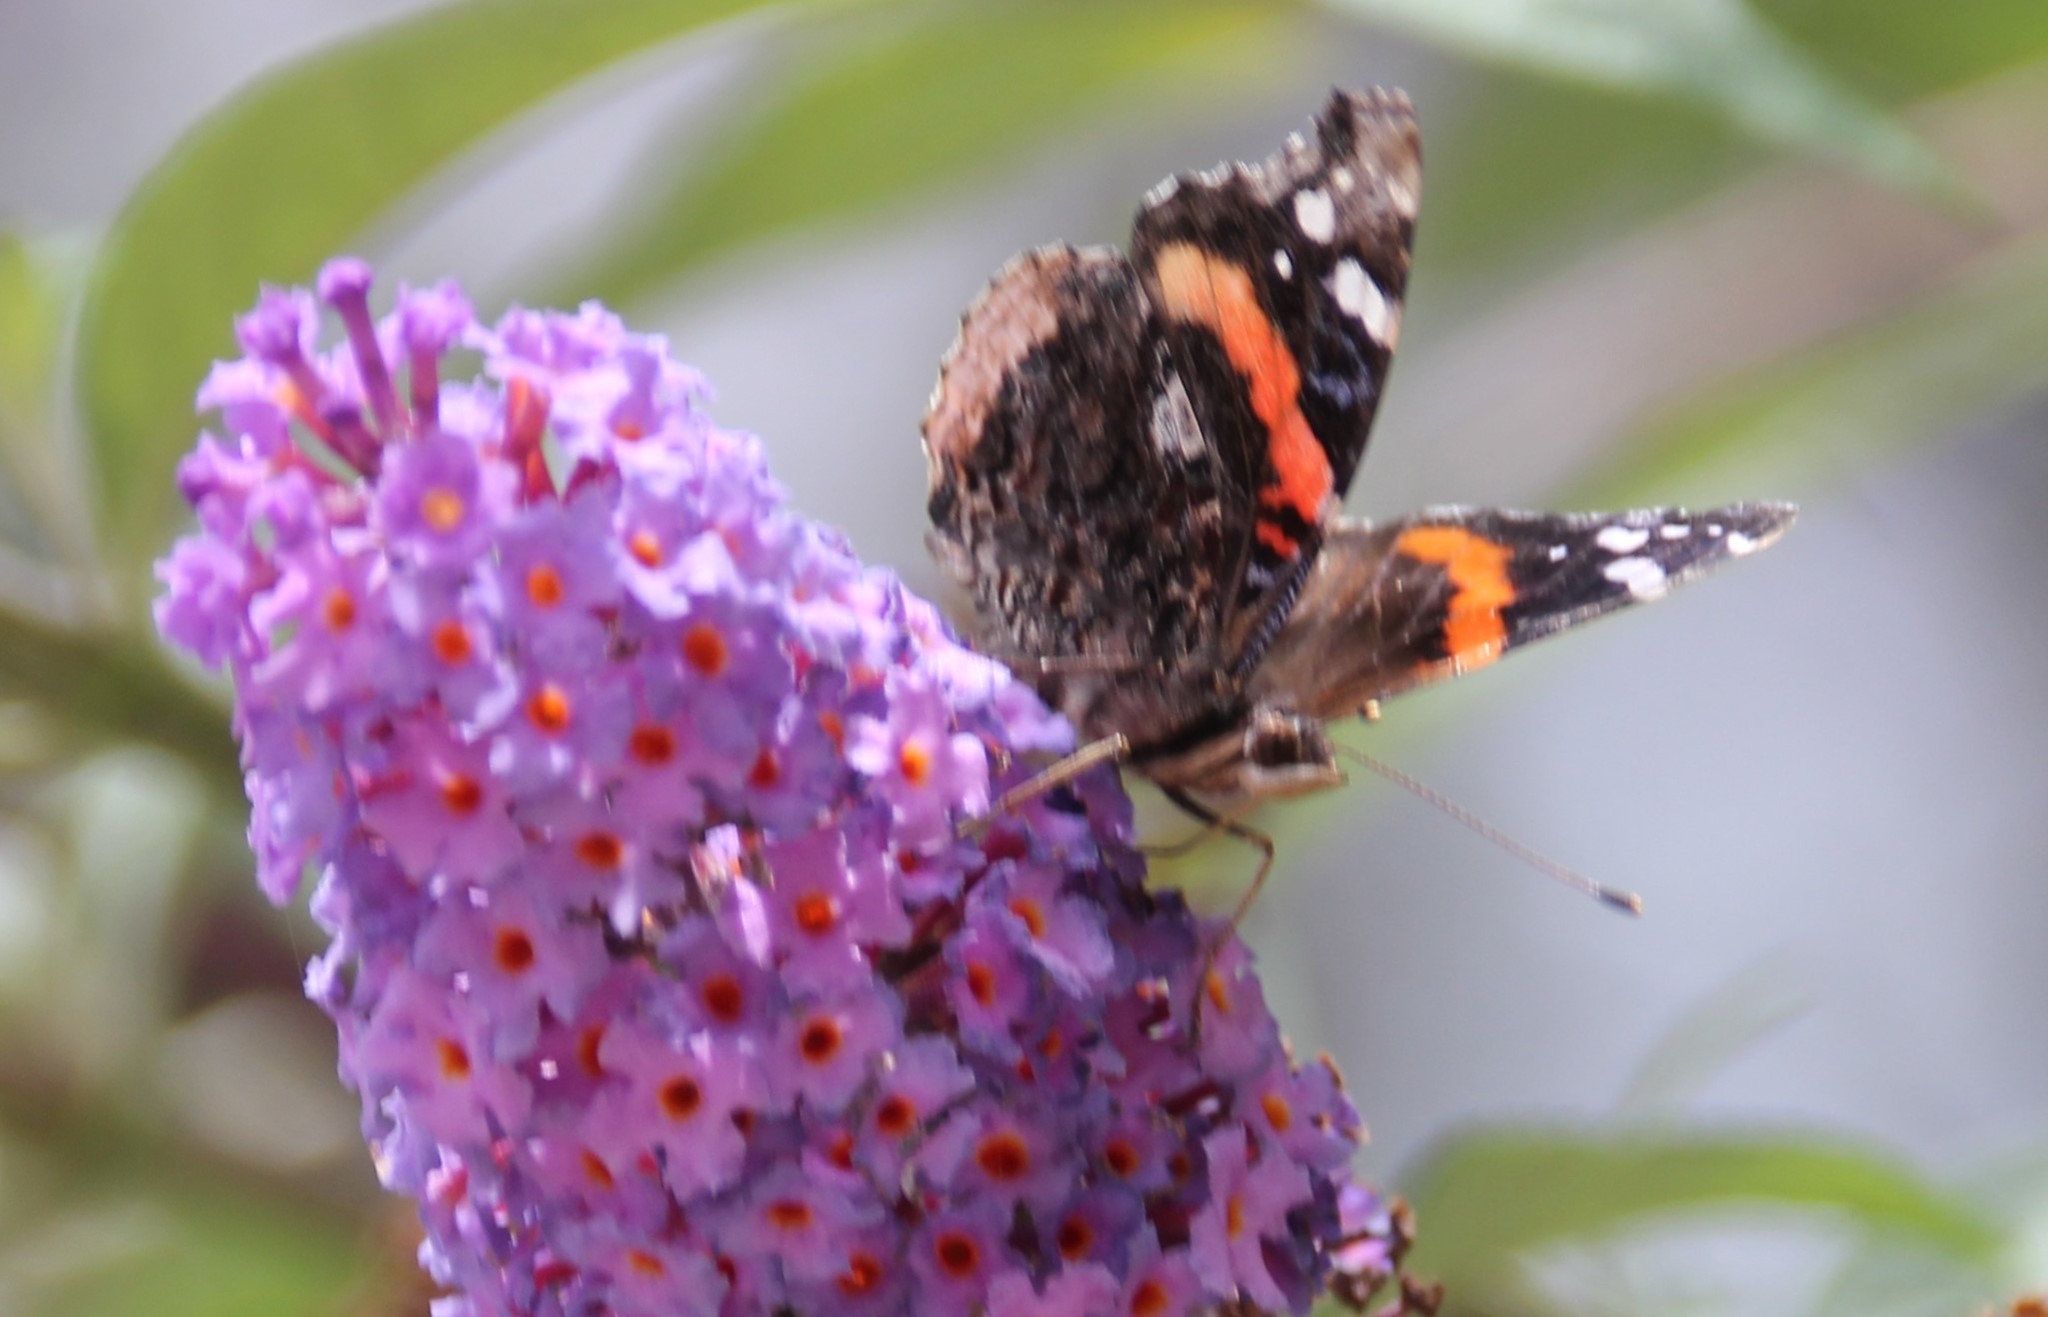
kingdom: Animalia
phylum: Arthropoda
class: Insecta
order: Lepidoptera
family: Nymphalidae
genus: Vanessa
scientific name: Vanessa atalanta
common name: Red admiral
